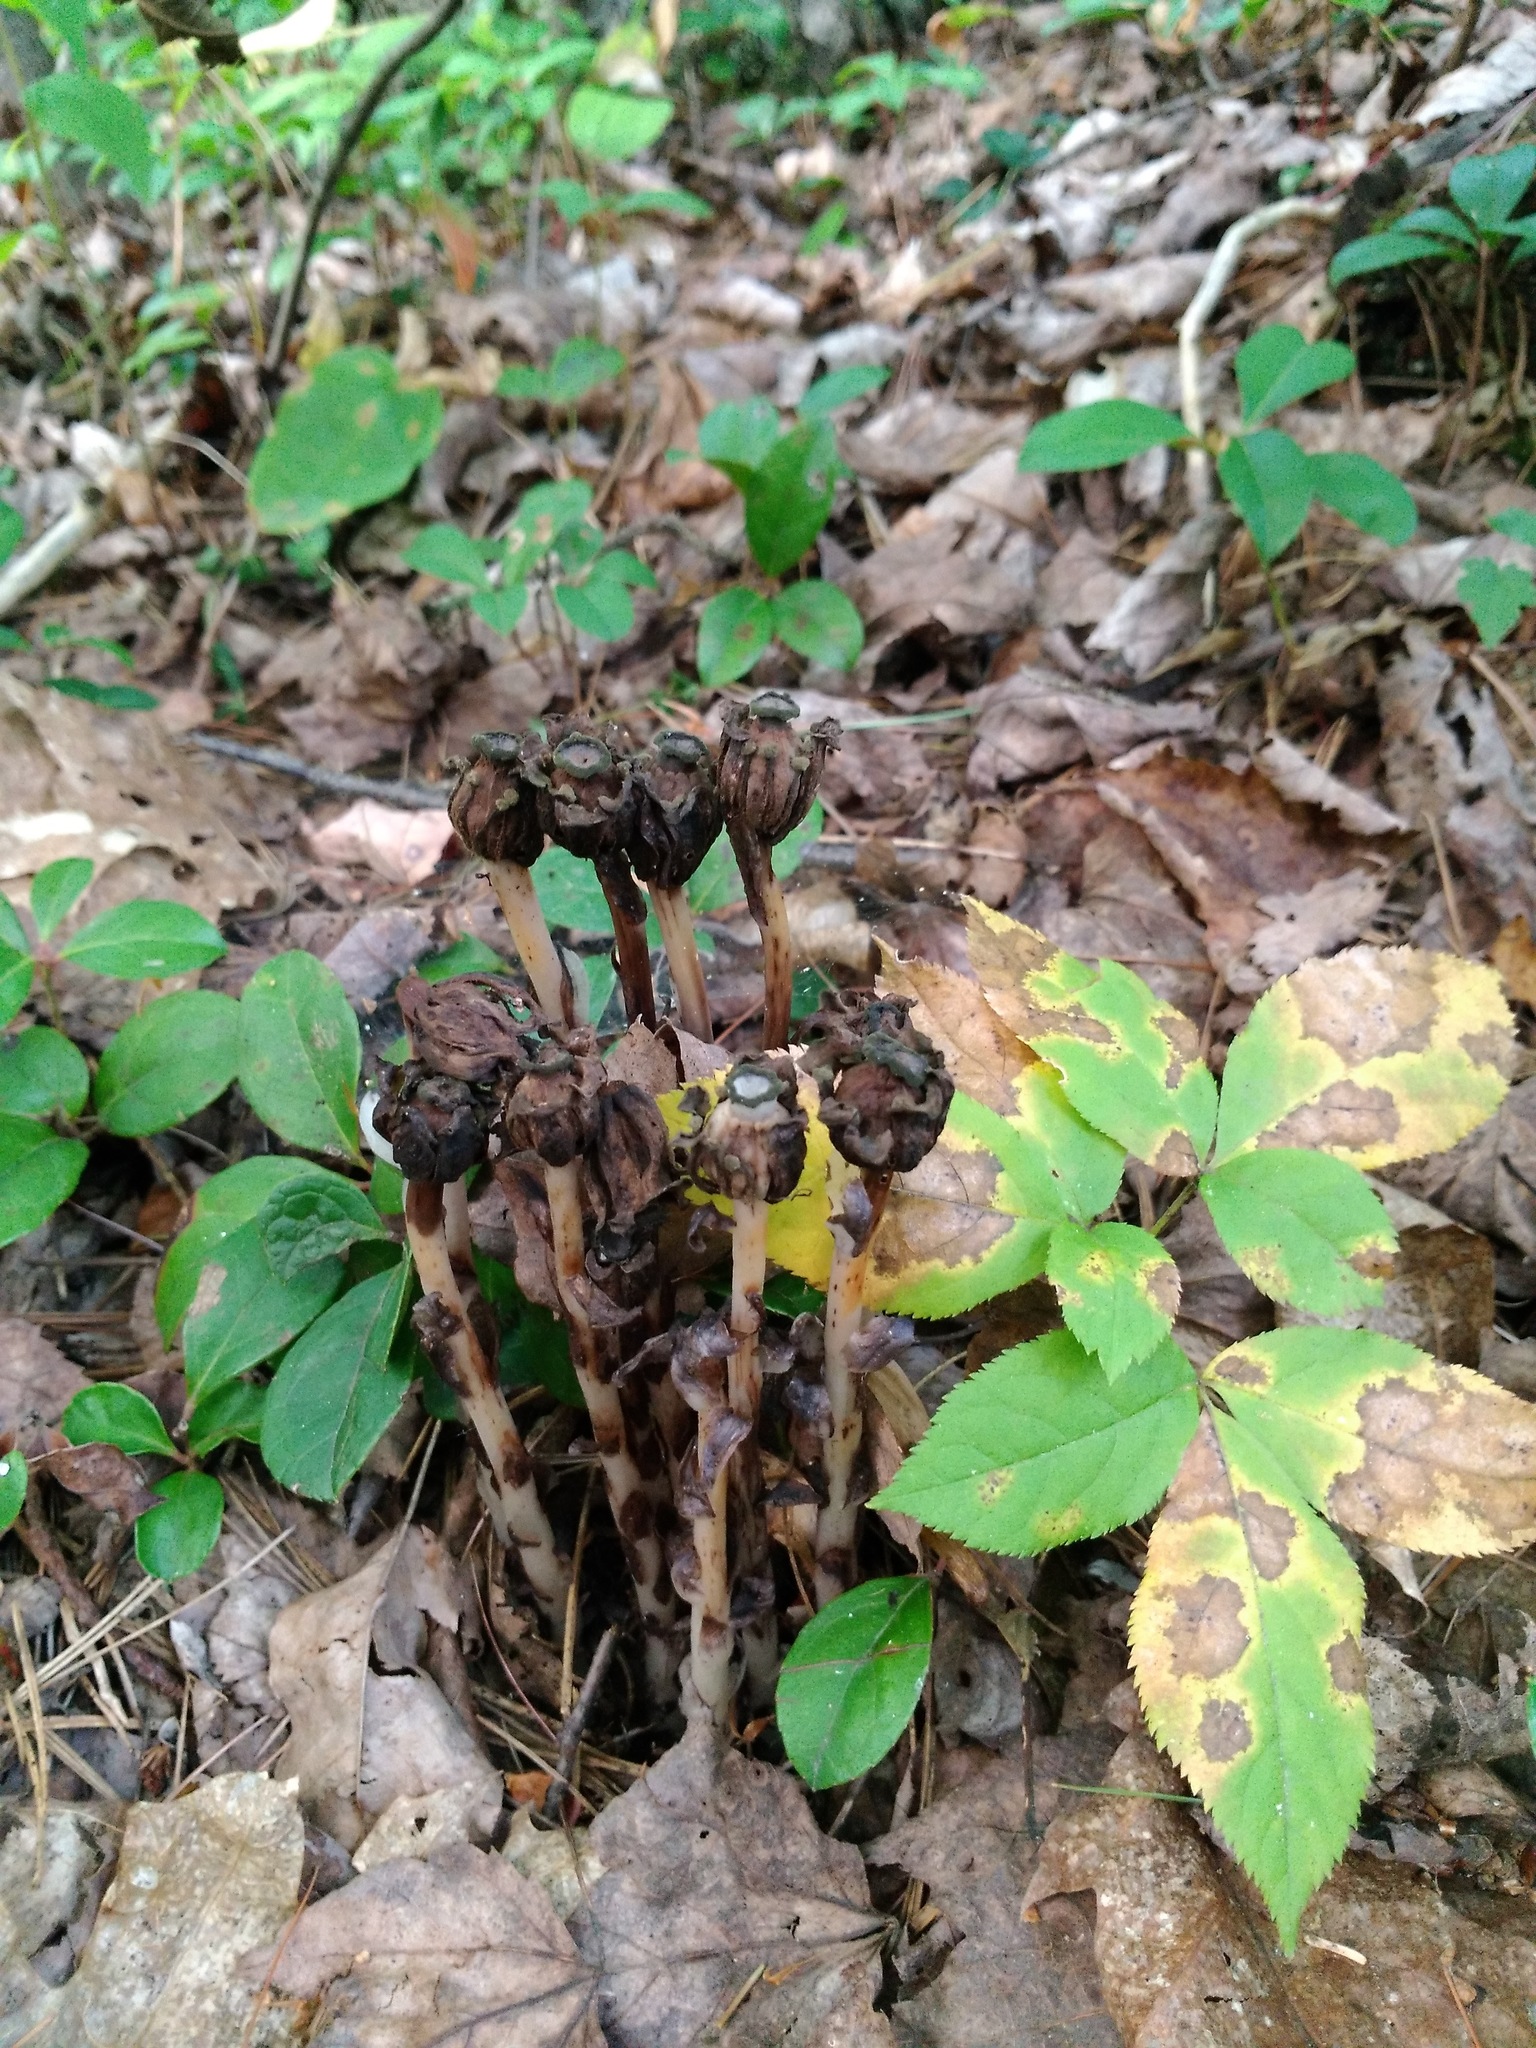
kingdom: Plantae
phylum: Tracheophyta
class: Magnoliopsida
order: Ericales
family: Ericaceae
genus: Monotropa
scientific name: Monotropa uniflora
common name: Convulsion root
